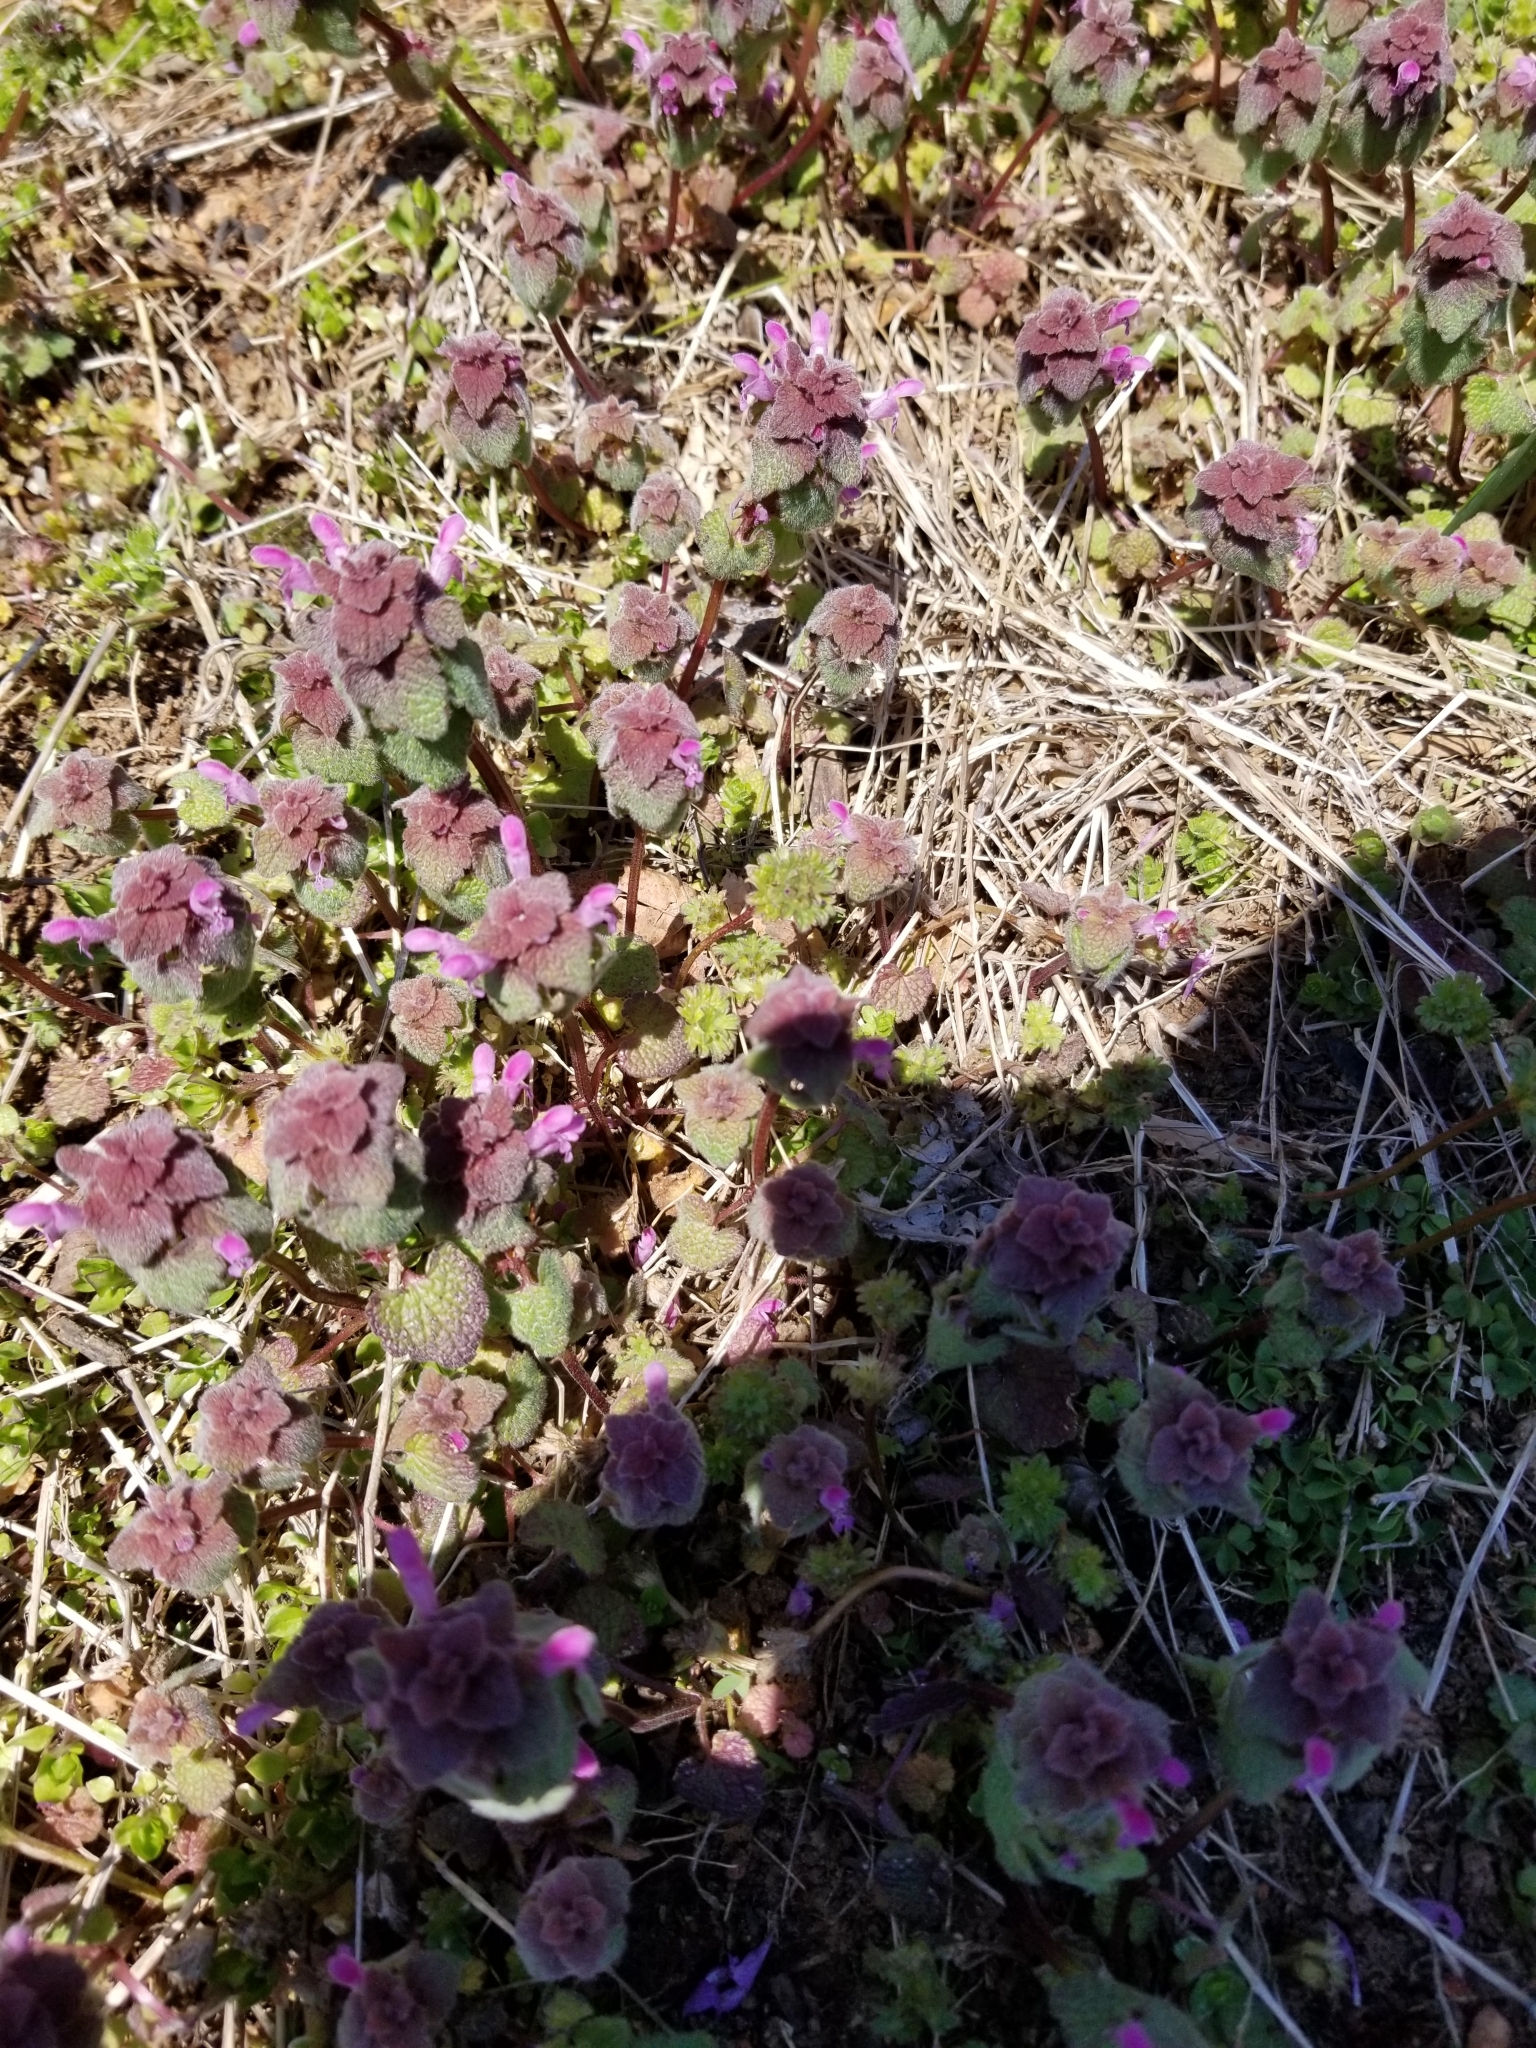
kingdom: Plantae
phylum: Tracheophyta
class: Magnoliopsida
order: Lamiales
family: Lamiaceae
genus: Lamium
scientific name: Lamium purpureum
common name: Red dead-nettle
